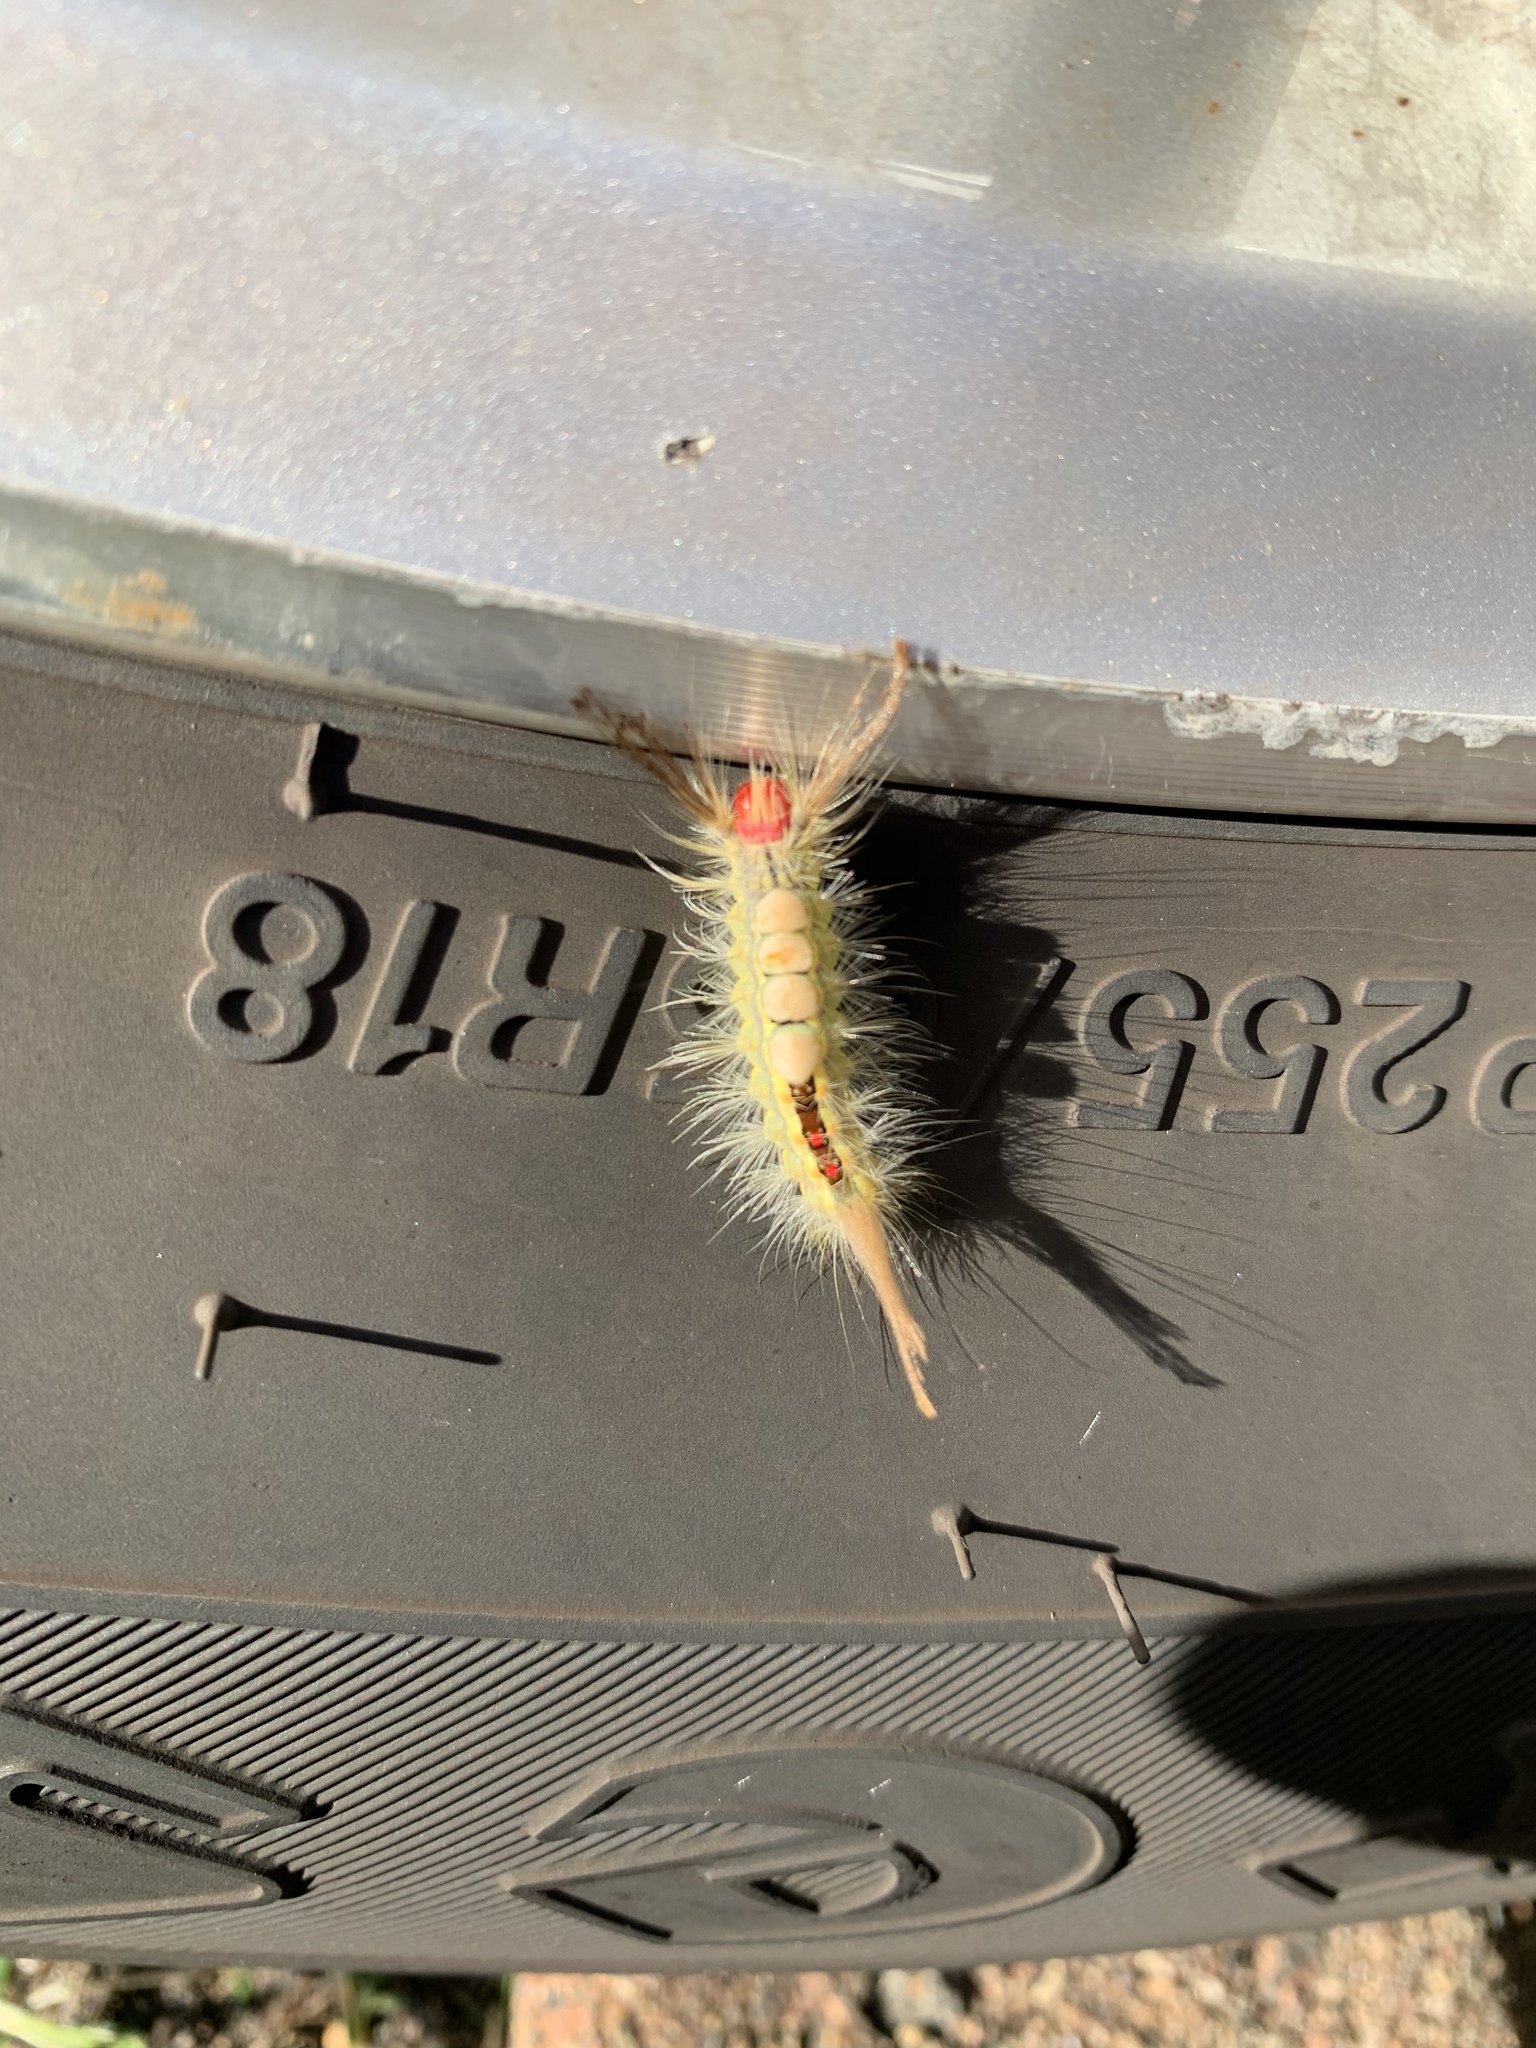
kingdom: Animalia
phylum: Arthropoda
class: Insecta
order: Lepidoptera
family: Erebidae
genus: Orgyia
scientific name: Orgyia leucostigma
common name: White-marked tussock moth
